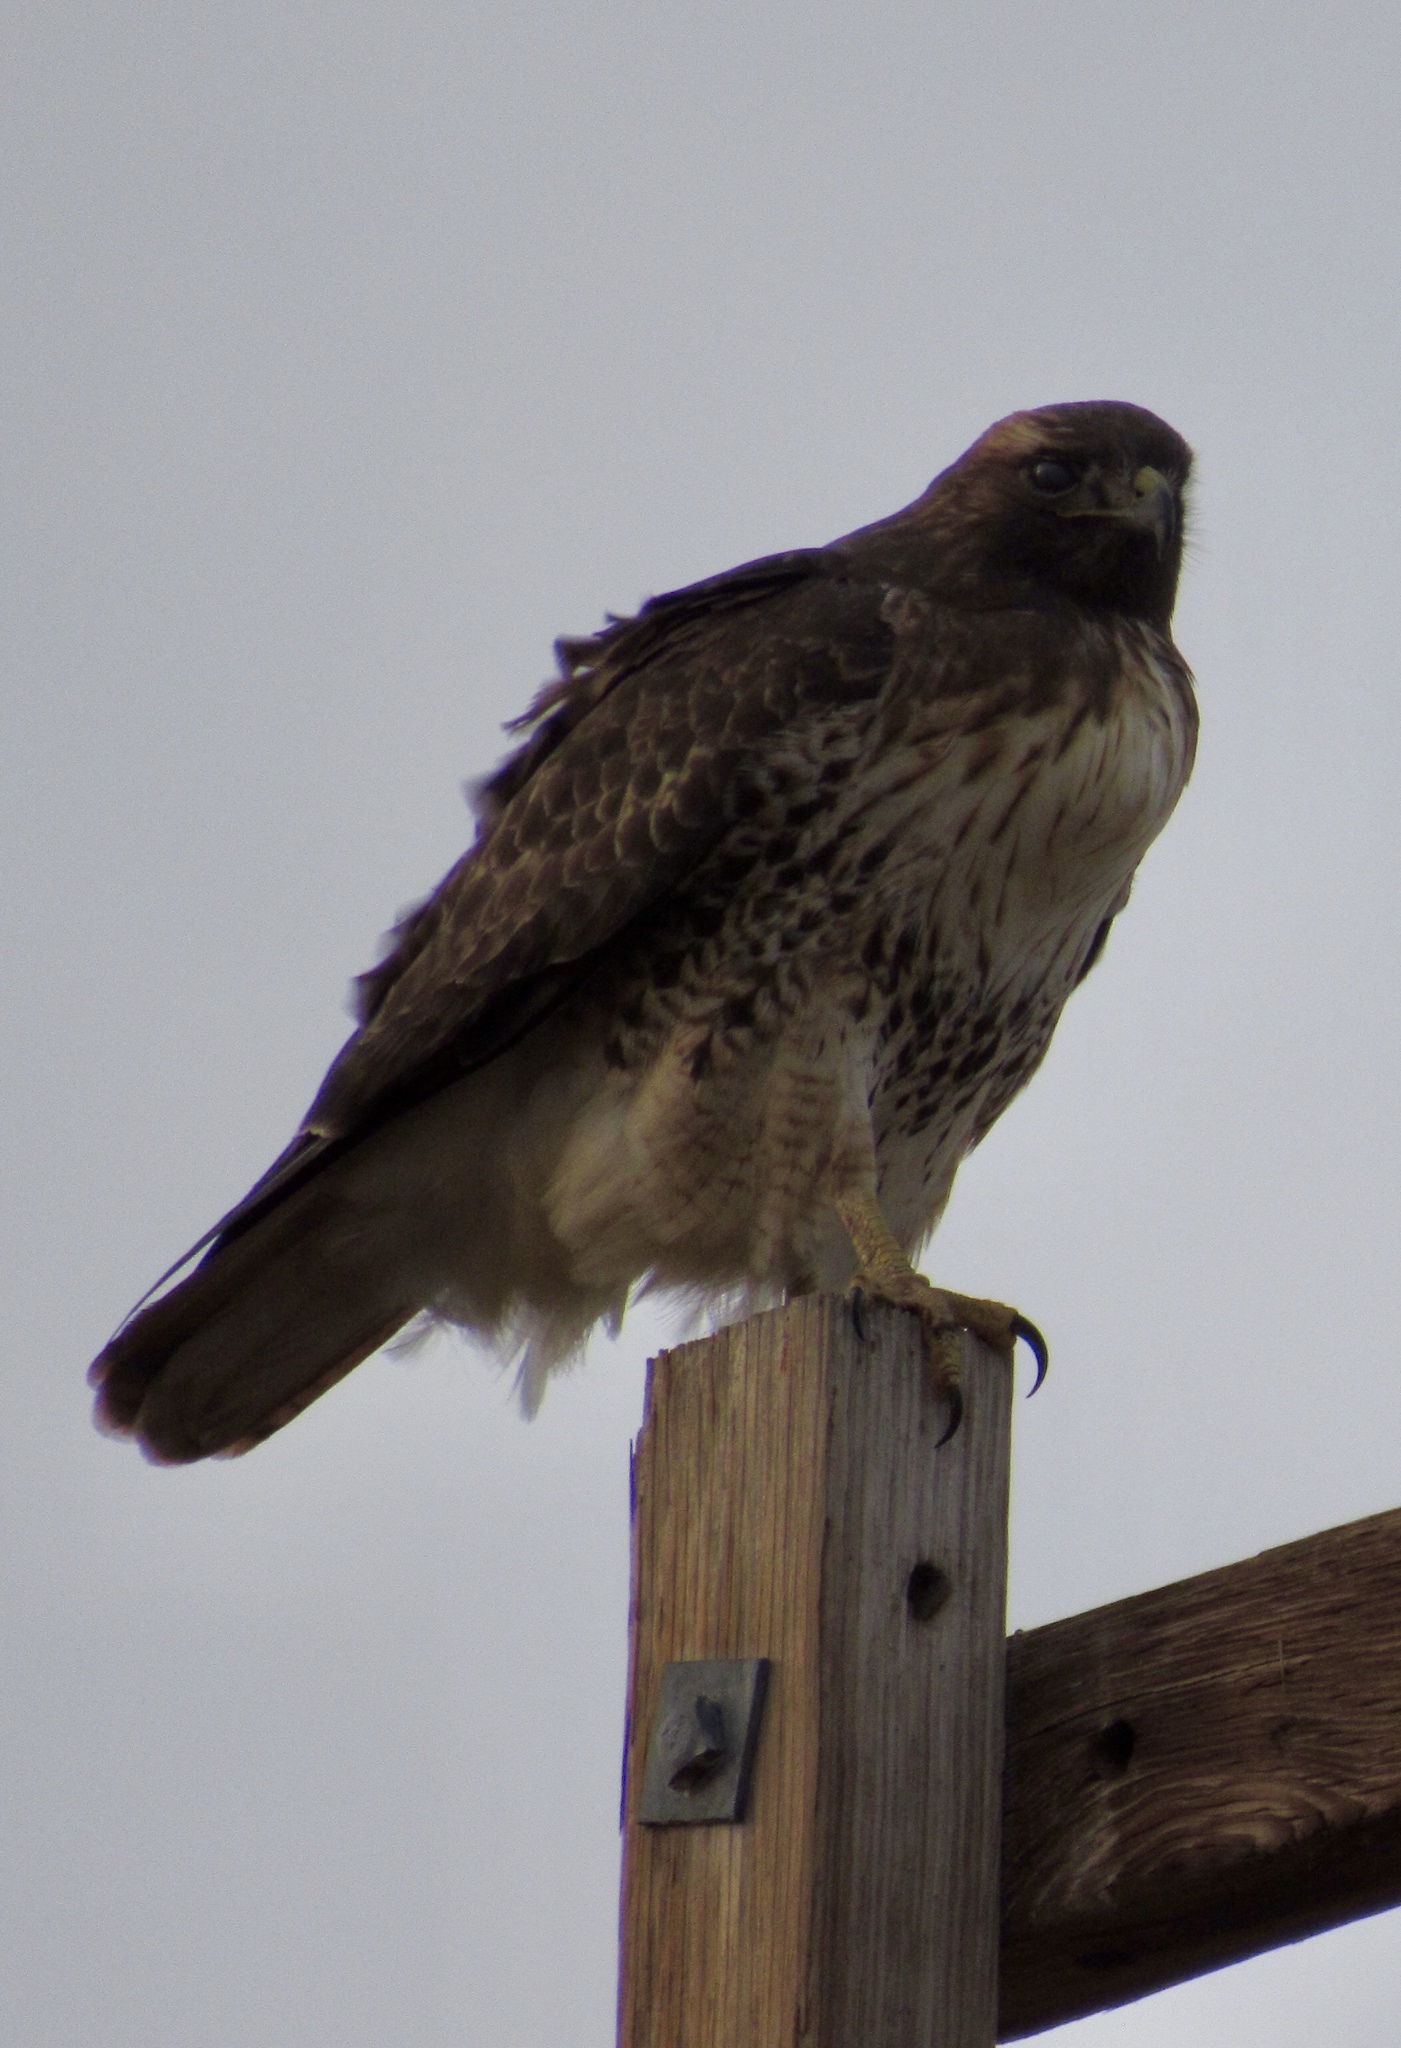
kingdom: Animalia
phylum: Chordata
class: Aves
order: Accipitriformes
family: Accipitridae
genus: Buteo
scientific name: Buteo jamaicensis
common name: Red-tailed hawk
